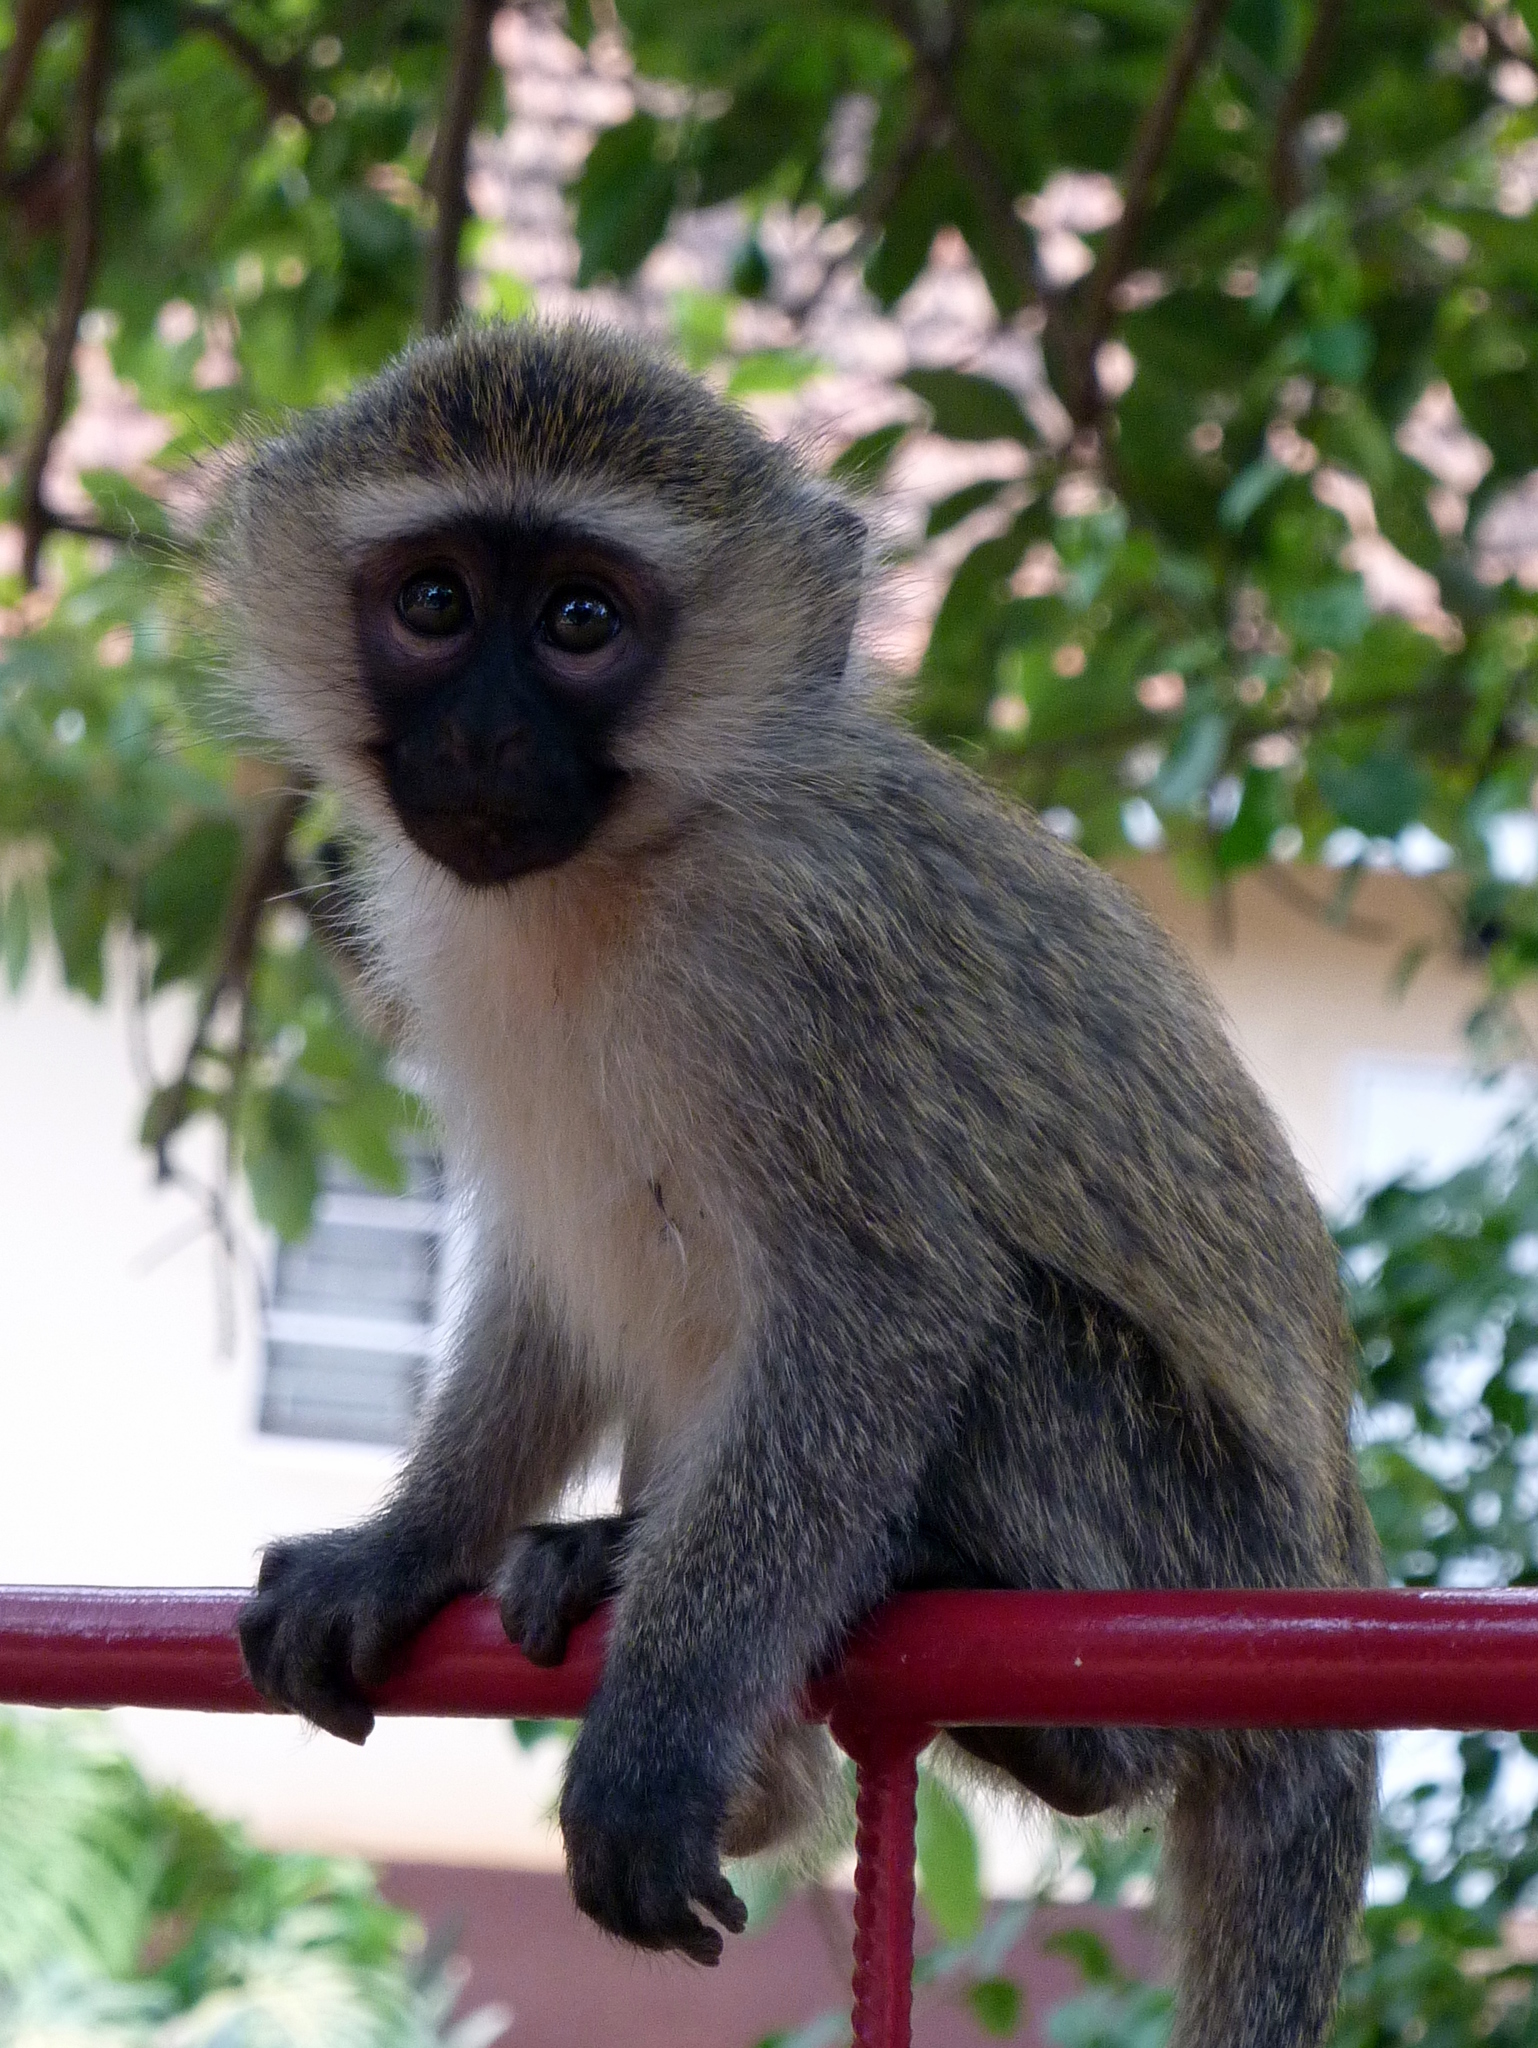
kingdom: Animalia
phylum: Chordata
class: Mammalia
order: Primates
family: Cercopithecidae
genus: Chlorocebus
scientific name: Chlorocebus tantalus
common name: Tantalus monkey
